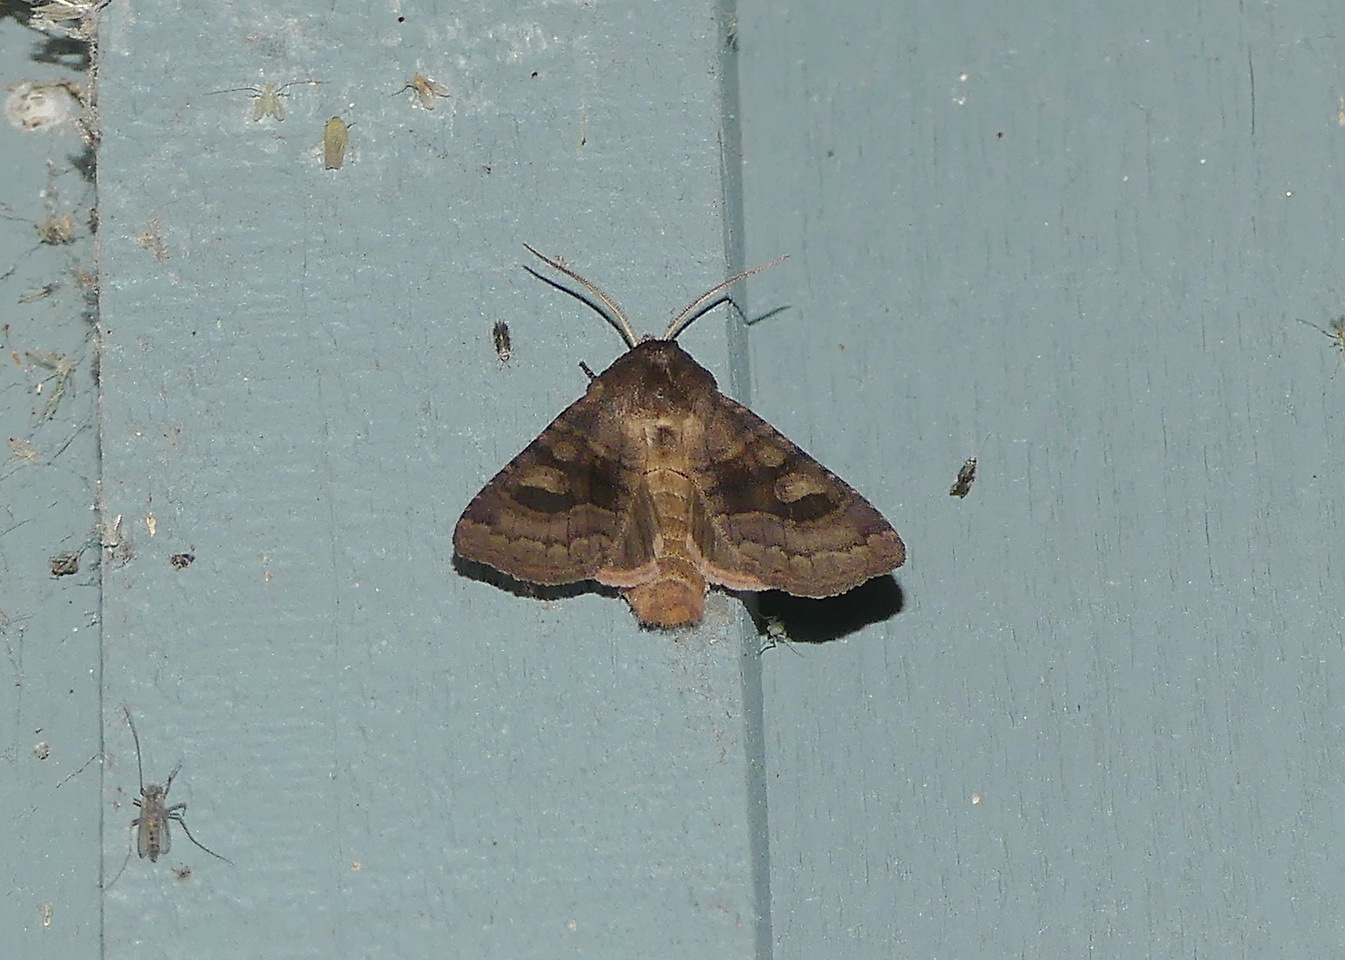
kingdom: Animalia
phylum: Arthropoda
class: Insecta
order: Lepidoptera
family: Noctuidae
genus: Nephelodes
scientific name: Nephelodes minians
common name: Bronzed cutworm
